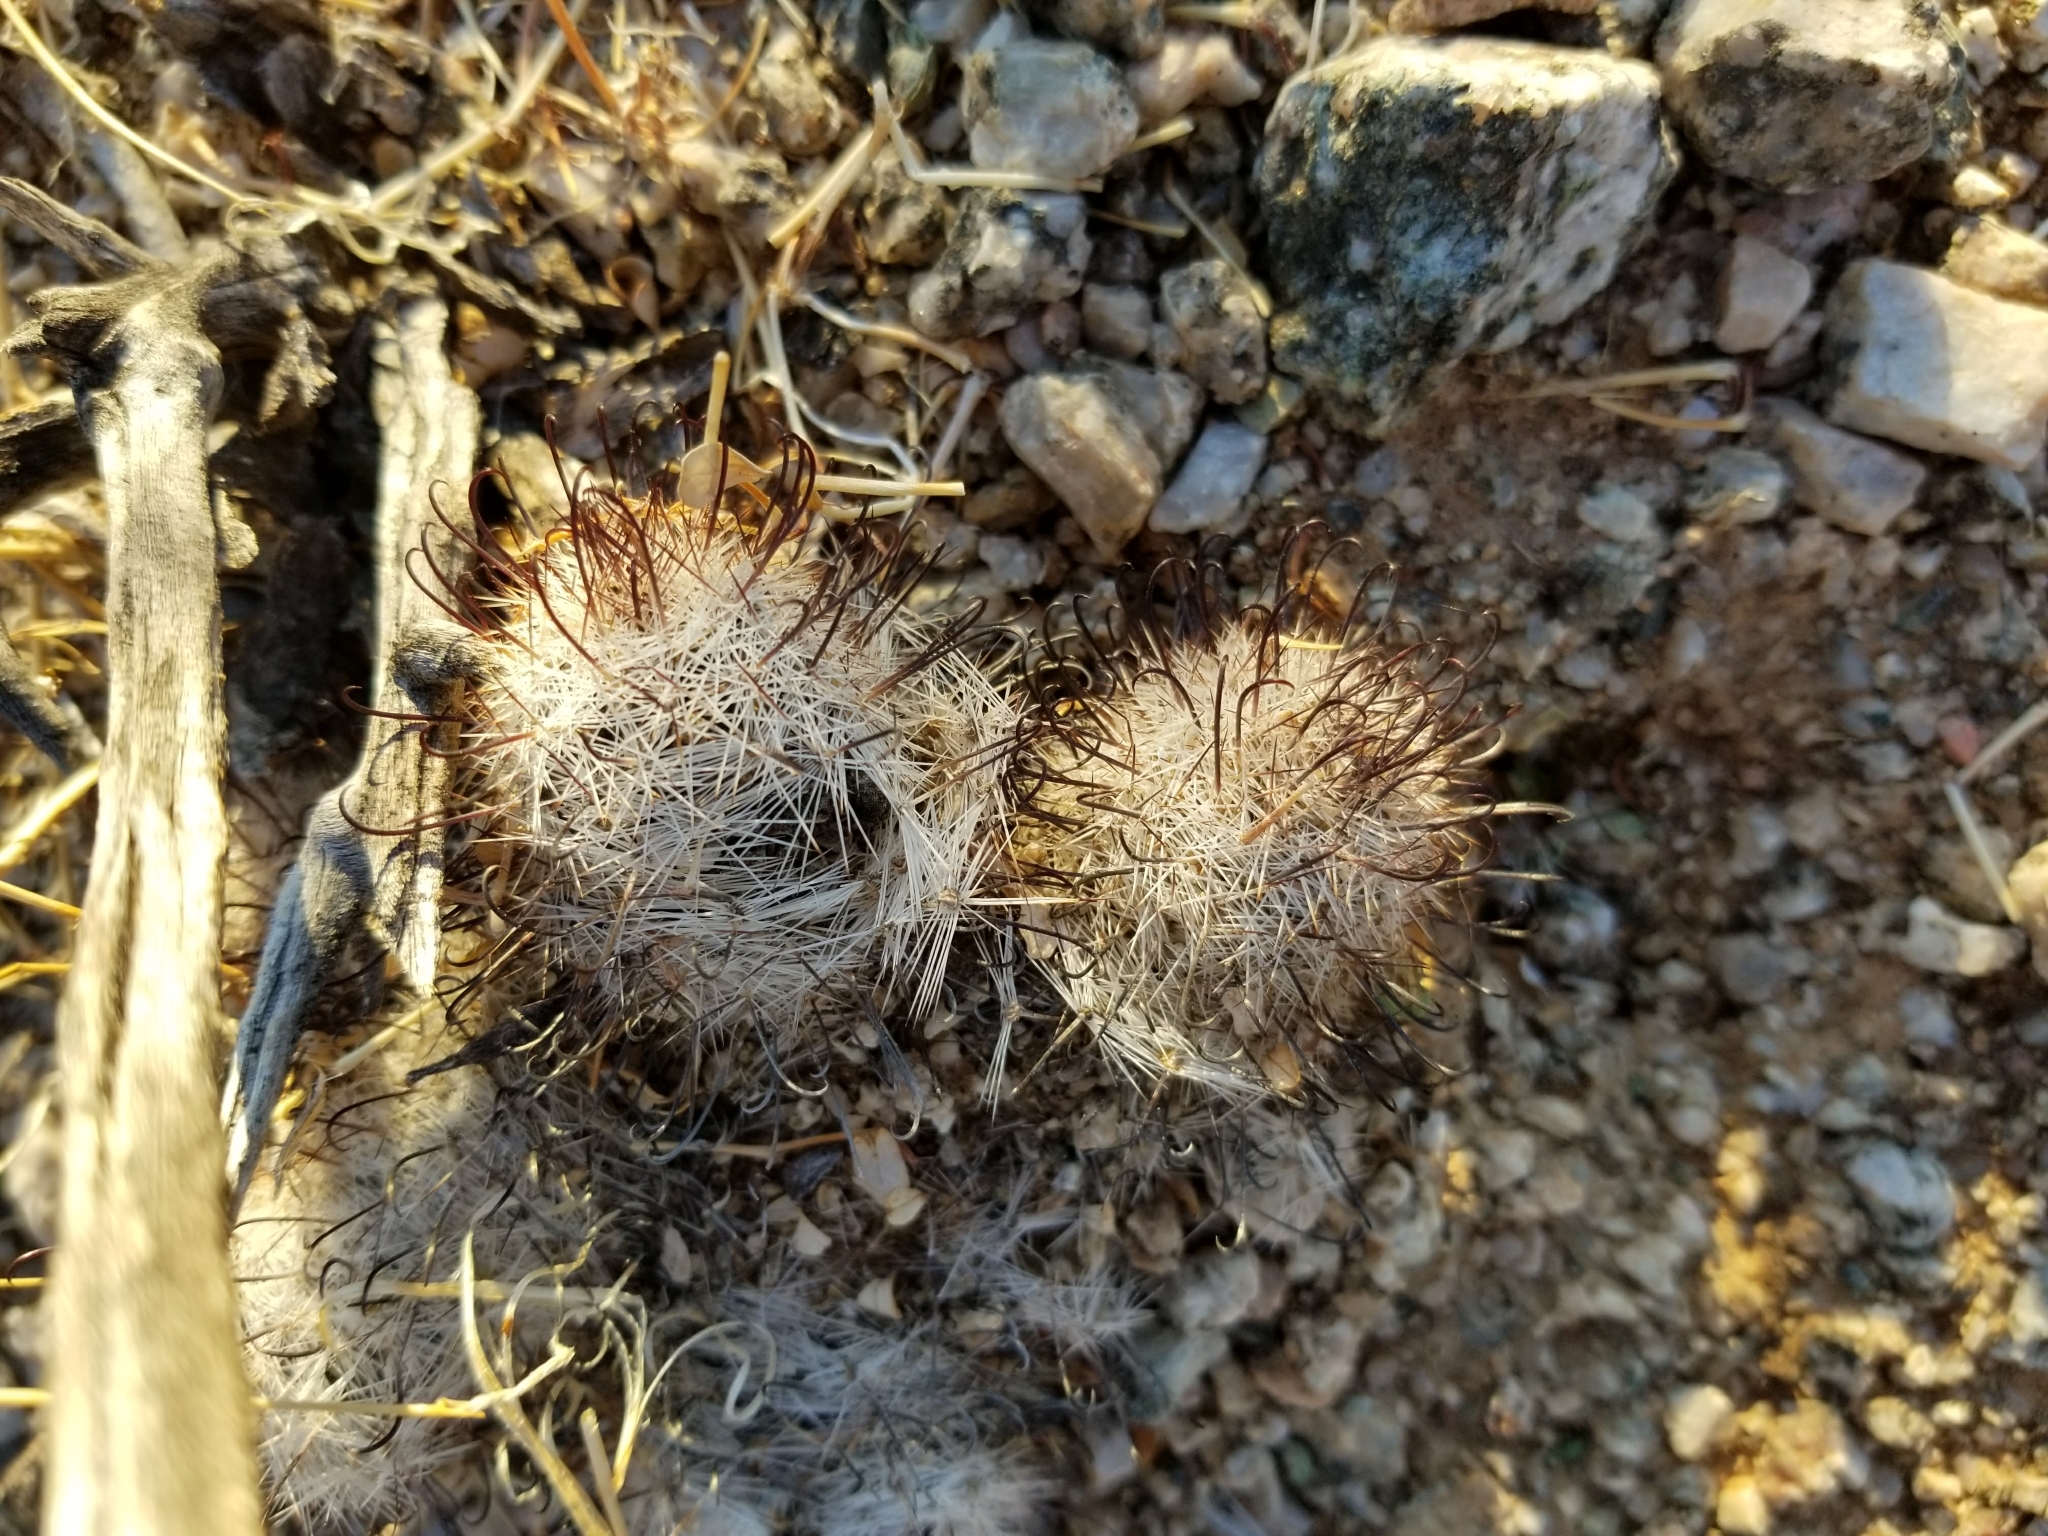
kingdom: Plantae
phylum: Tracheophyta
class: Magnoliopsida
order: Caryophyllales
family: Cactaceae
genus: Cochemiea
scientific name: Cochemiea tetrancistra
